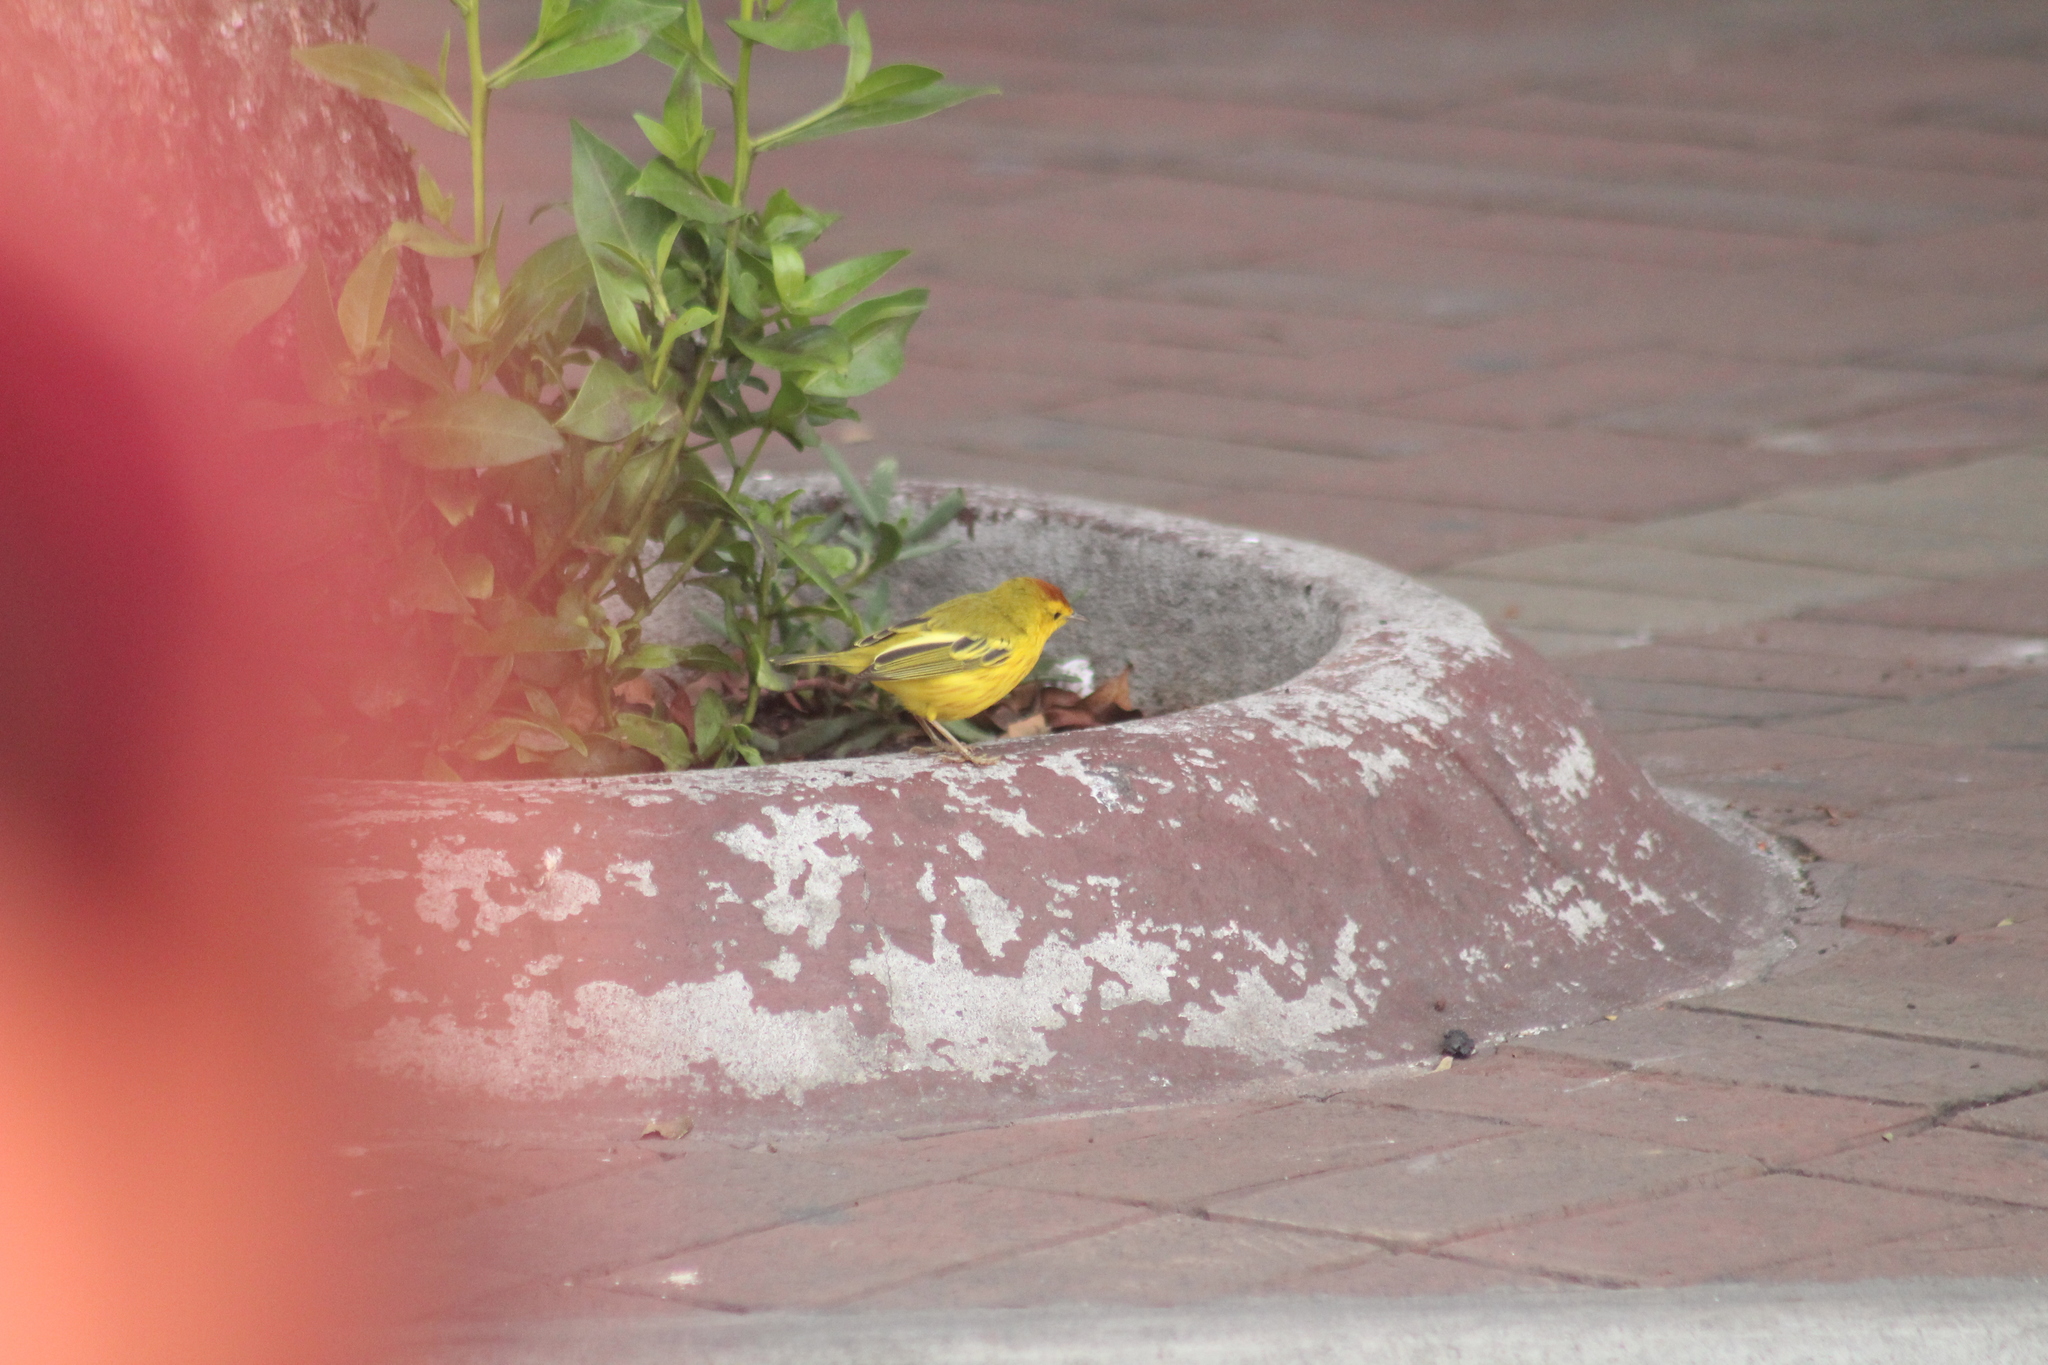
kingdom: Animalia
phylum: Chordata
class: Aves
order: Passeriformes
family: Parulidae
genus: Setophaga
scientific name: Setophaga petechia
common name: Yellow warbler
